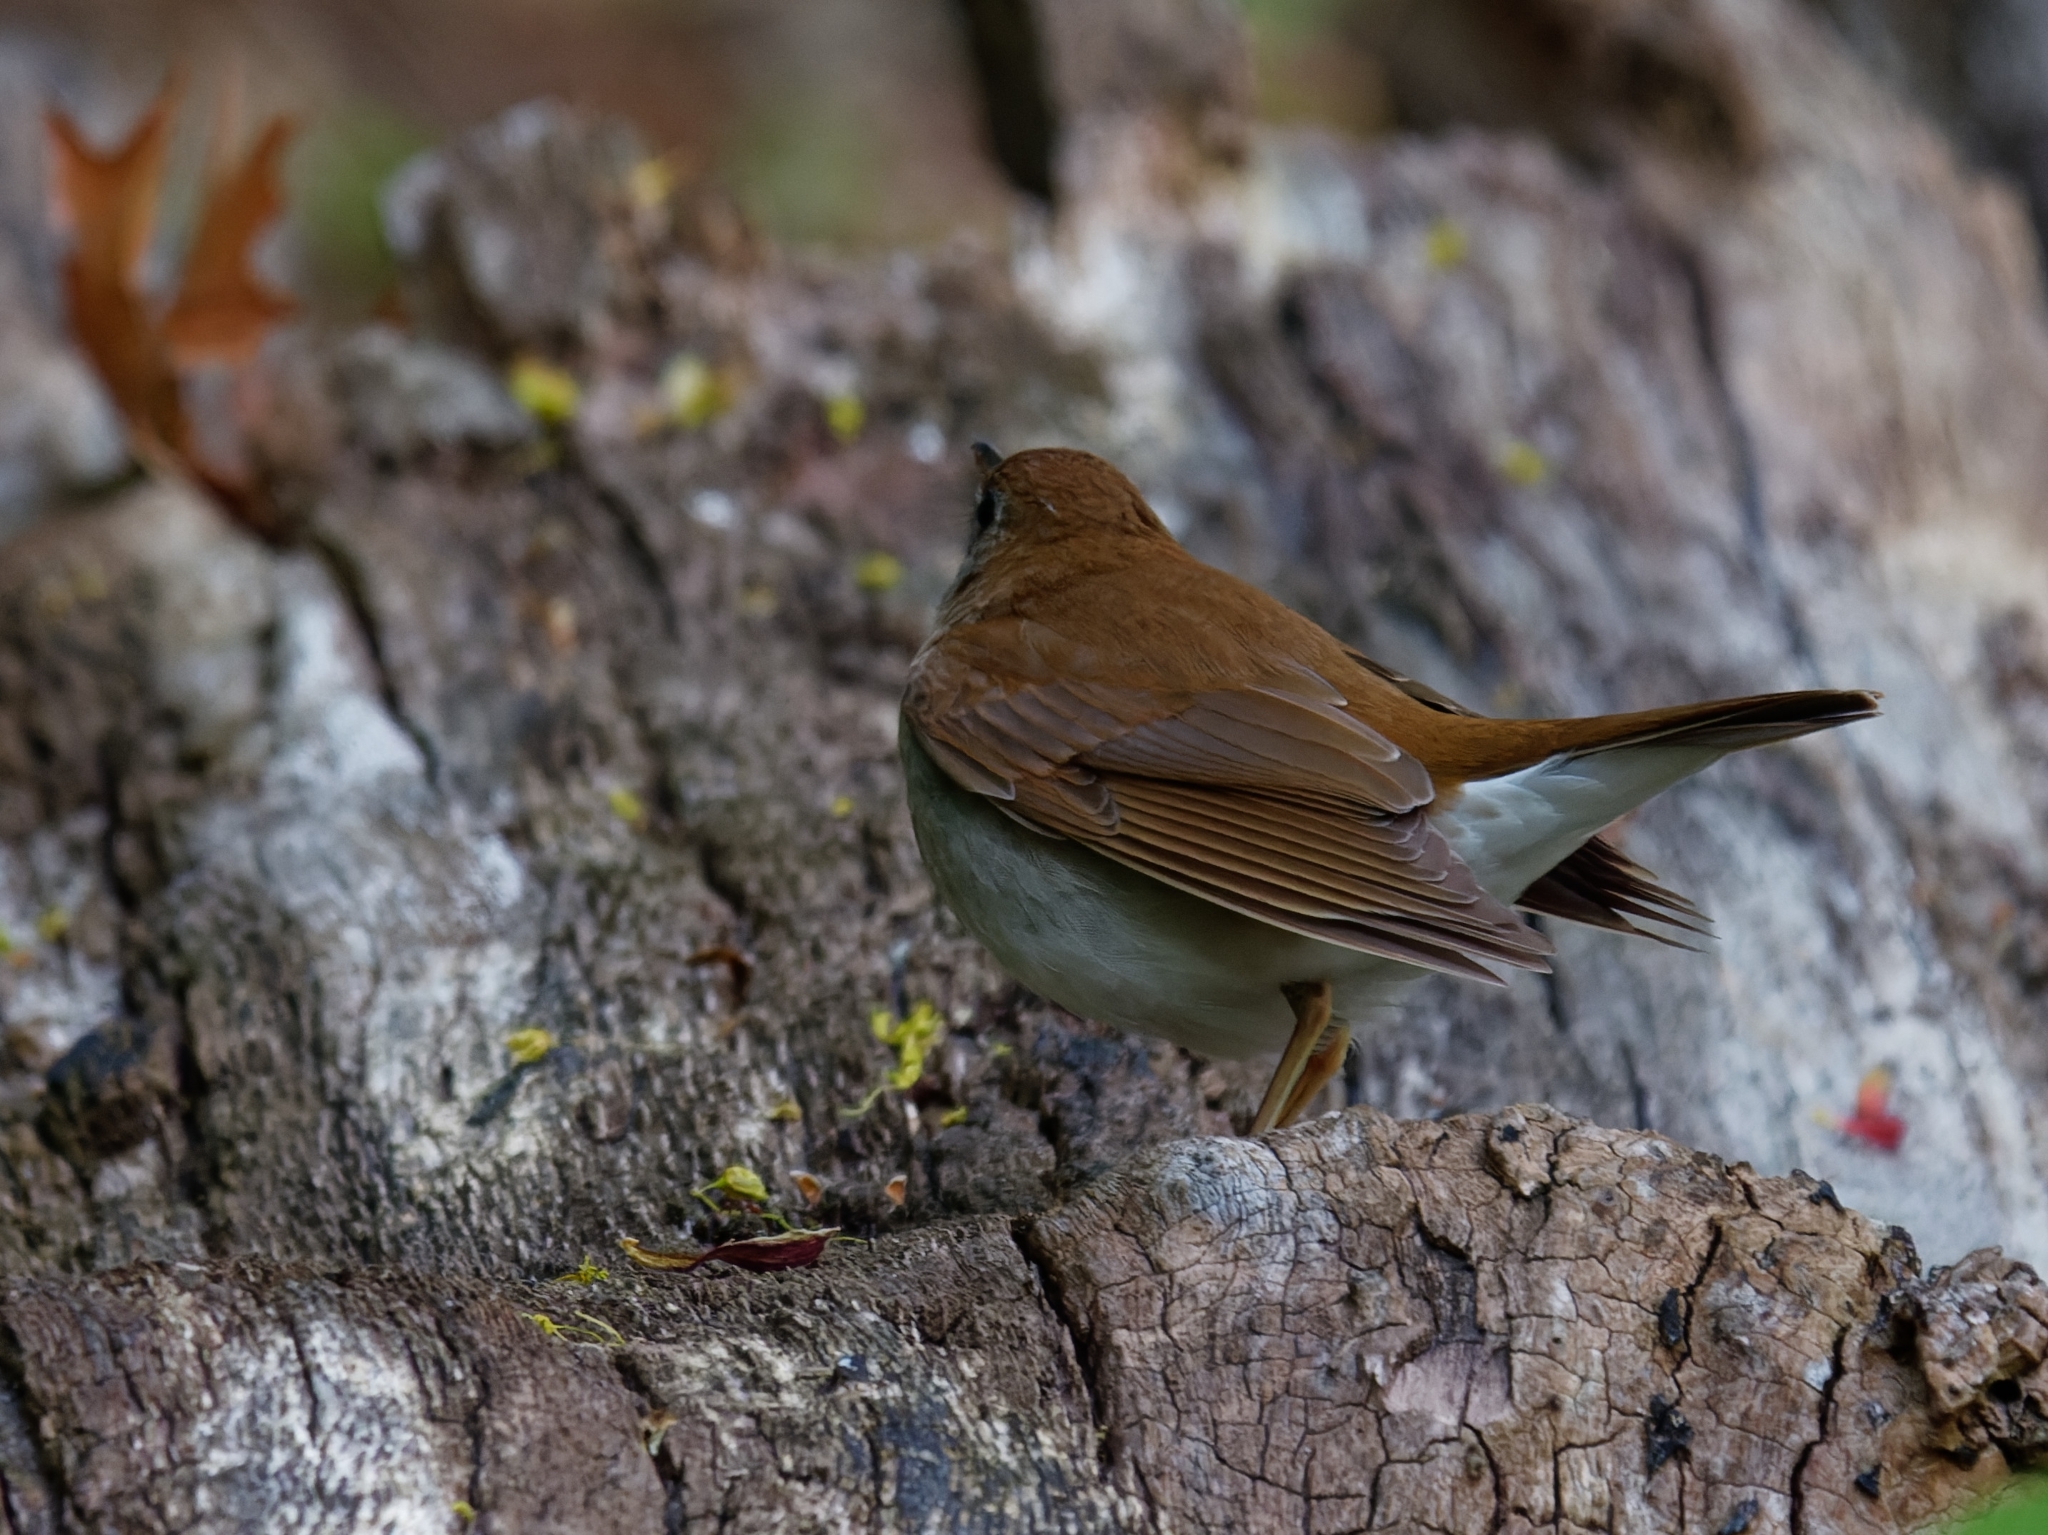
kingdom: Animalia
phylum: Chordata
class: Aves
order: Passeriformes
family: Turdidae
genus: Catharus
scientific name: Catharus fuscescens
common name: Veery
